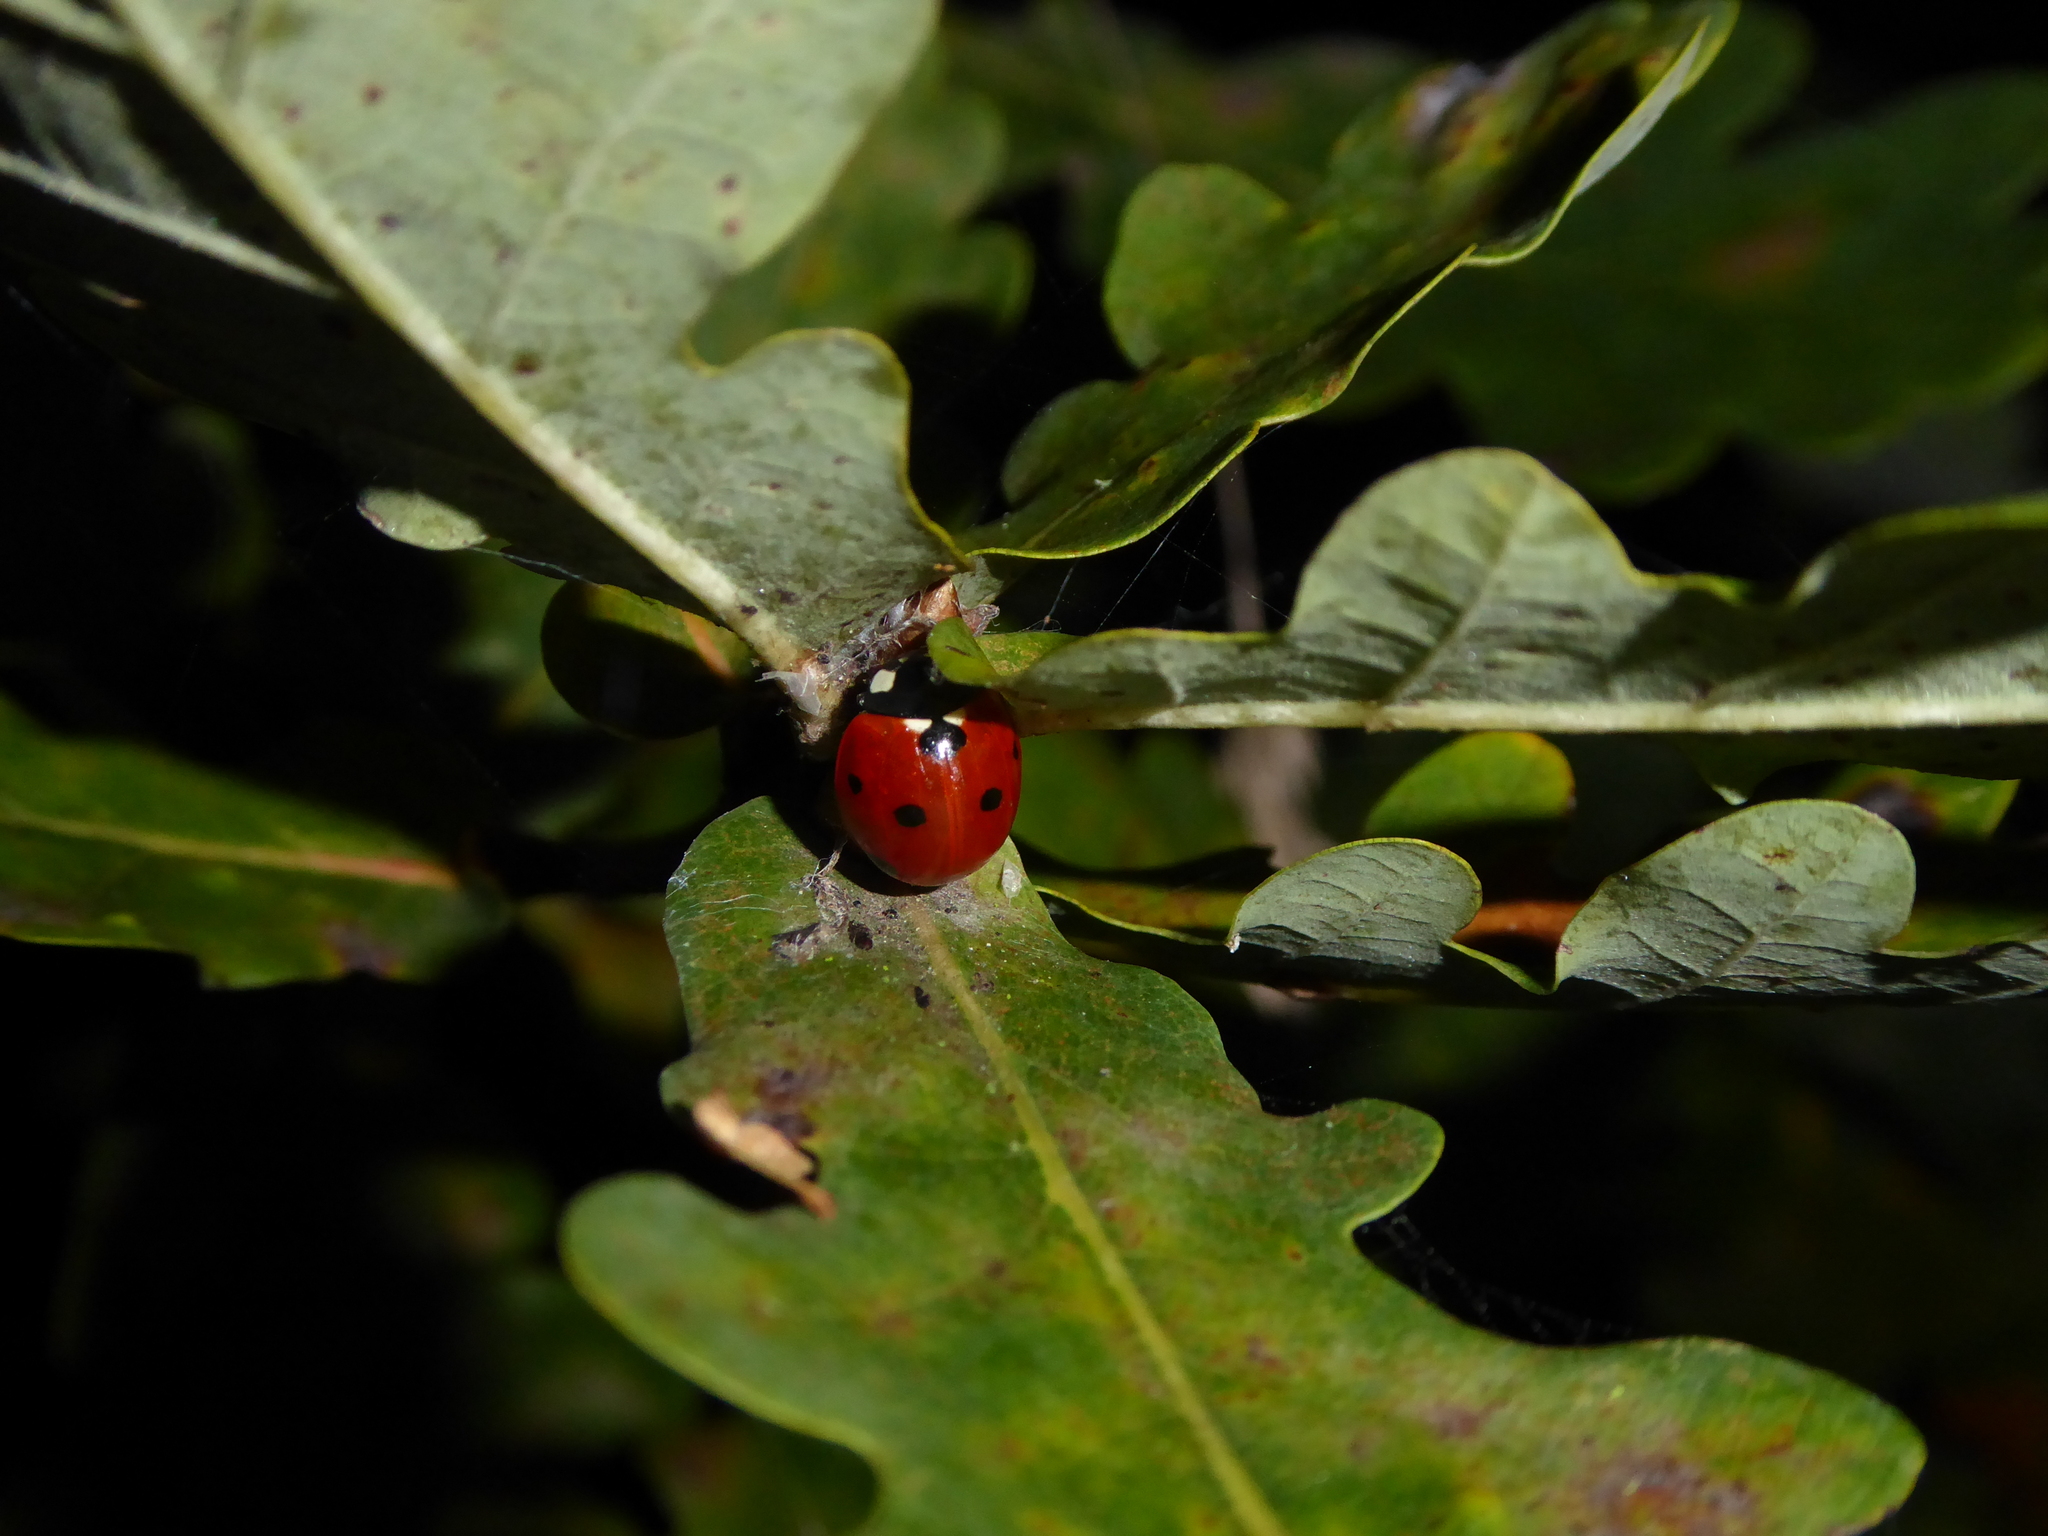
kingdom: Animalia
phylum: Arthropoda
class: Insecta
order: Coleoptera
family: Coccinellidae
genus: Coccinella
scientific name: Coccinella septempunctata
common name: Sevenspotted lady beetle
